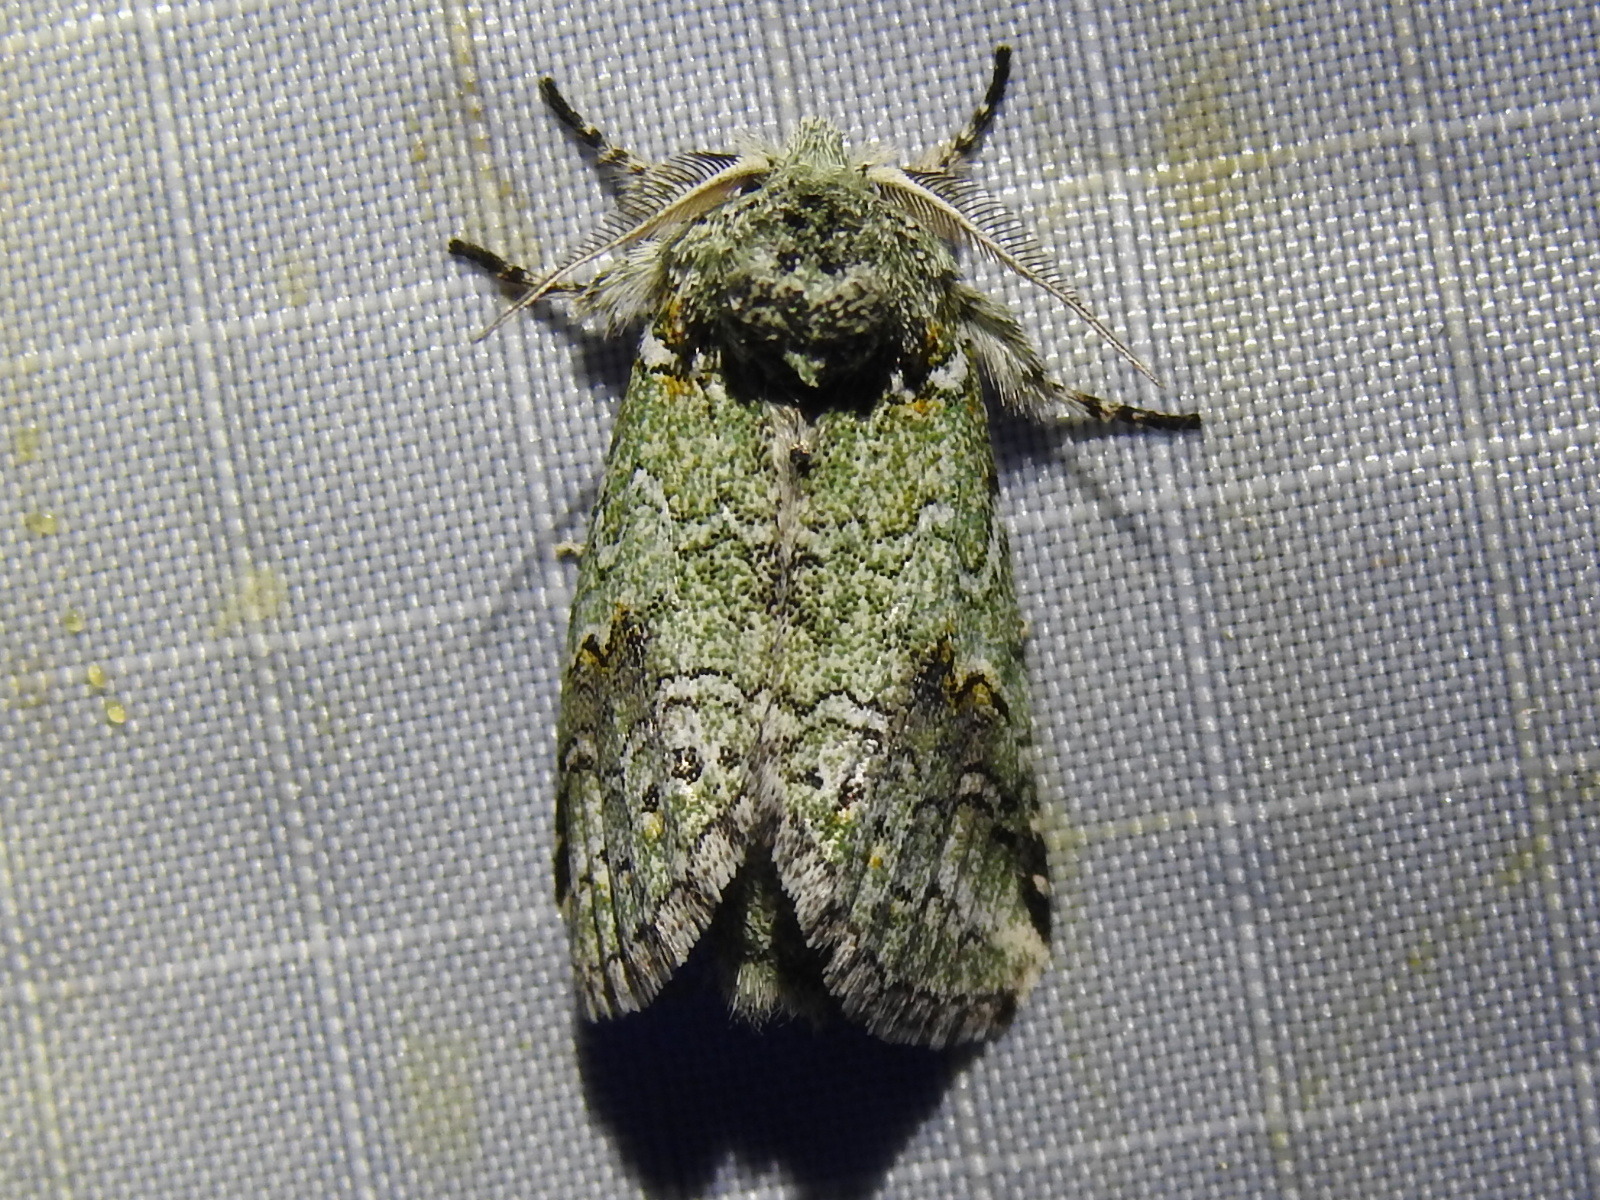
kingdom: Animalia
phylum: Arthropoda
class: Insecta
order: Lepidoptera
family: Notodontidae
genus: Litodonta
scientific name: Litodonta hydromeli
